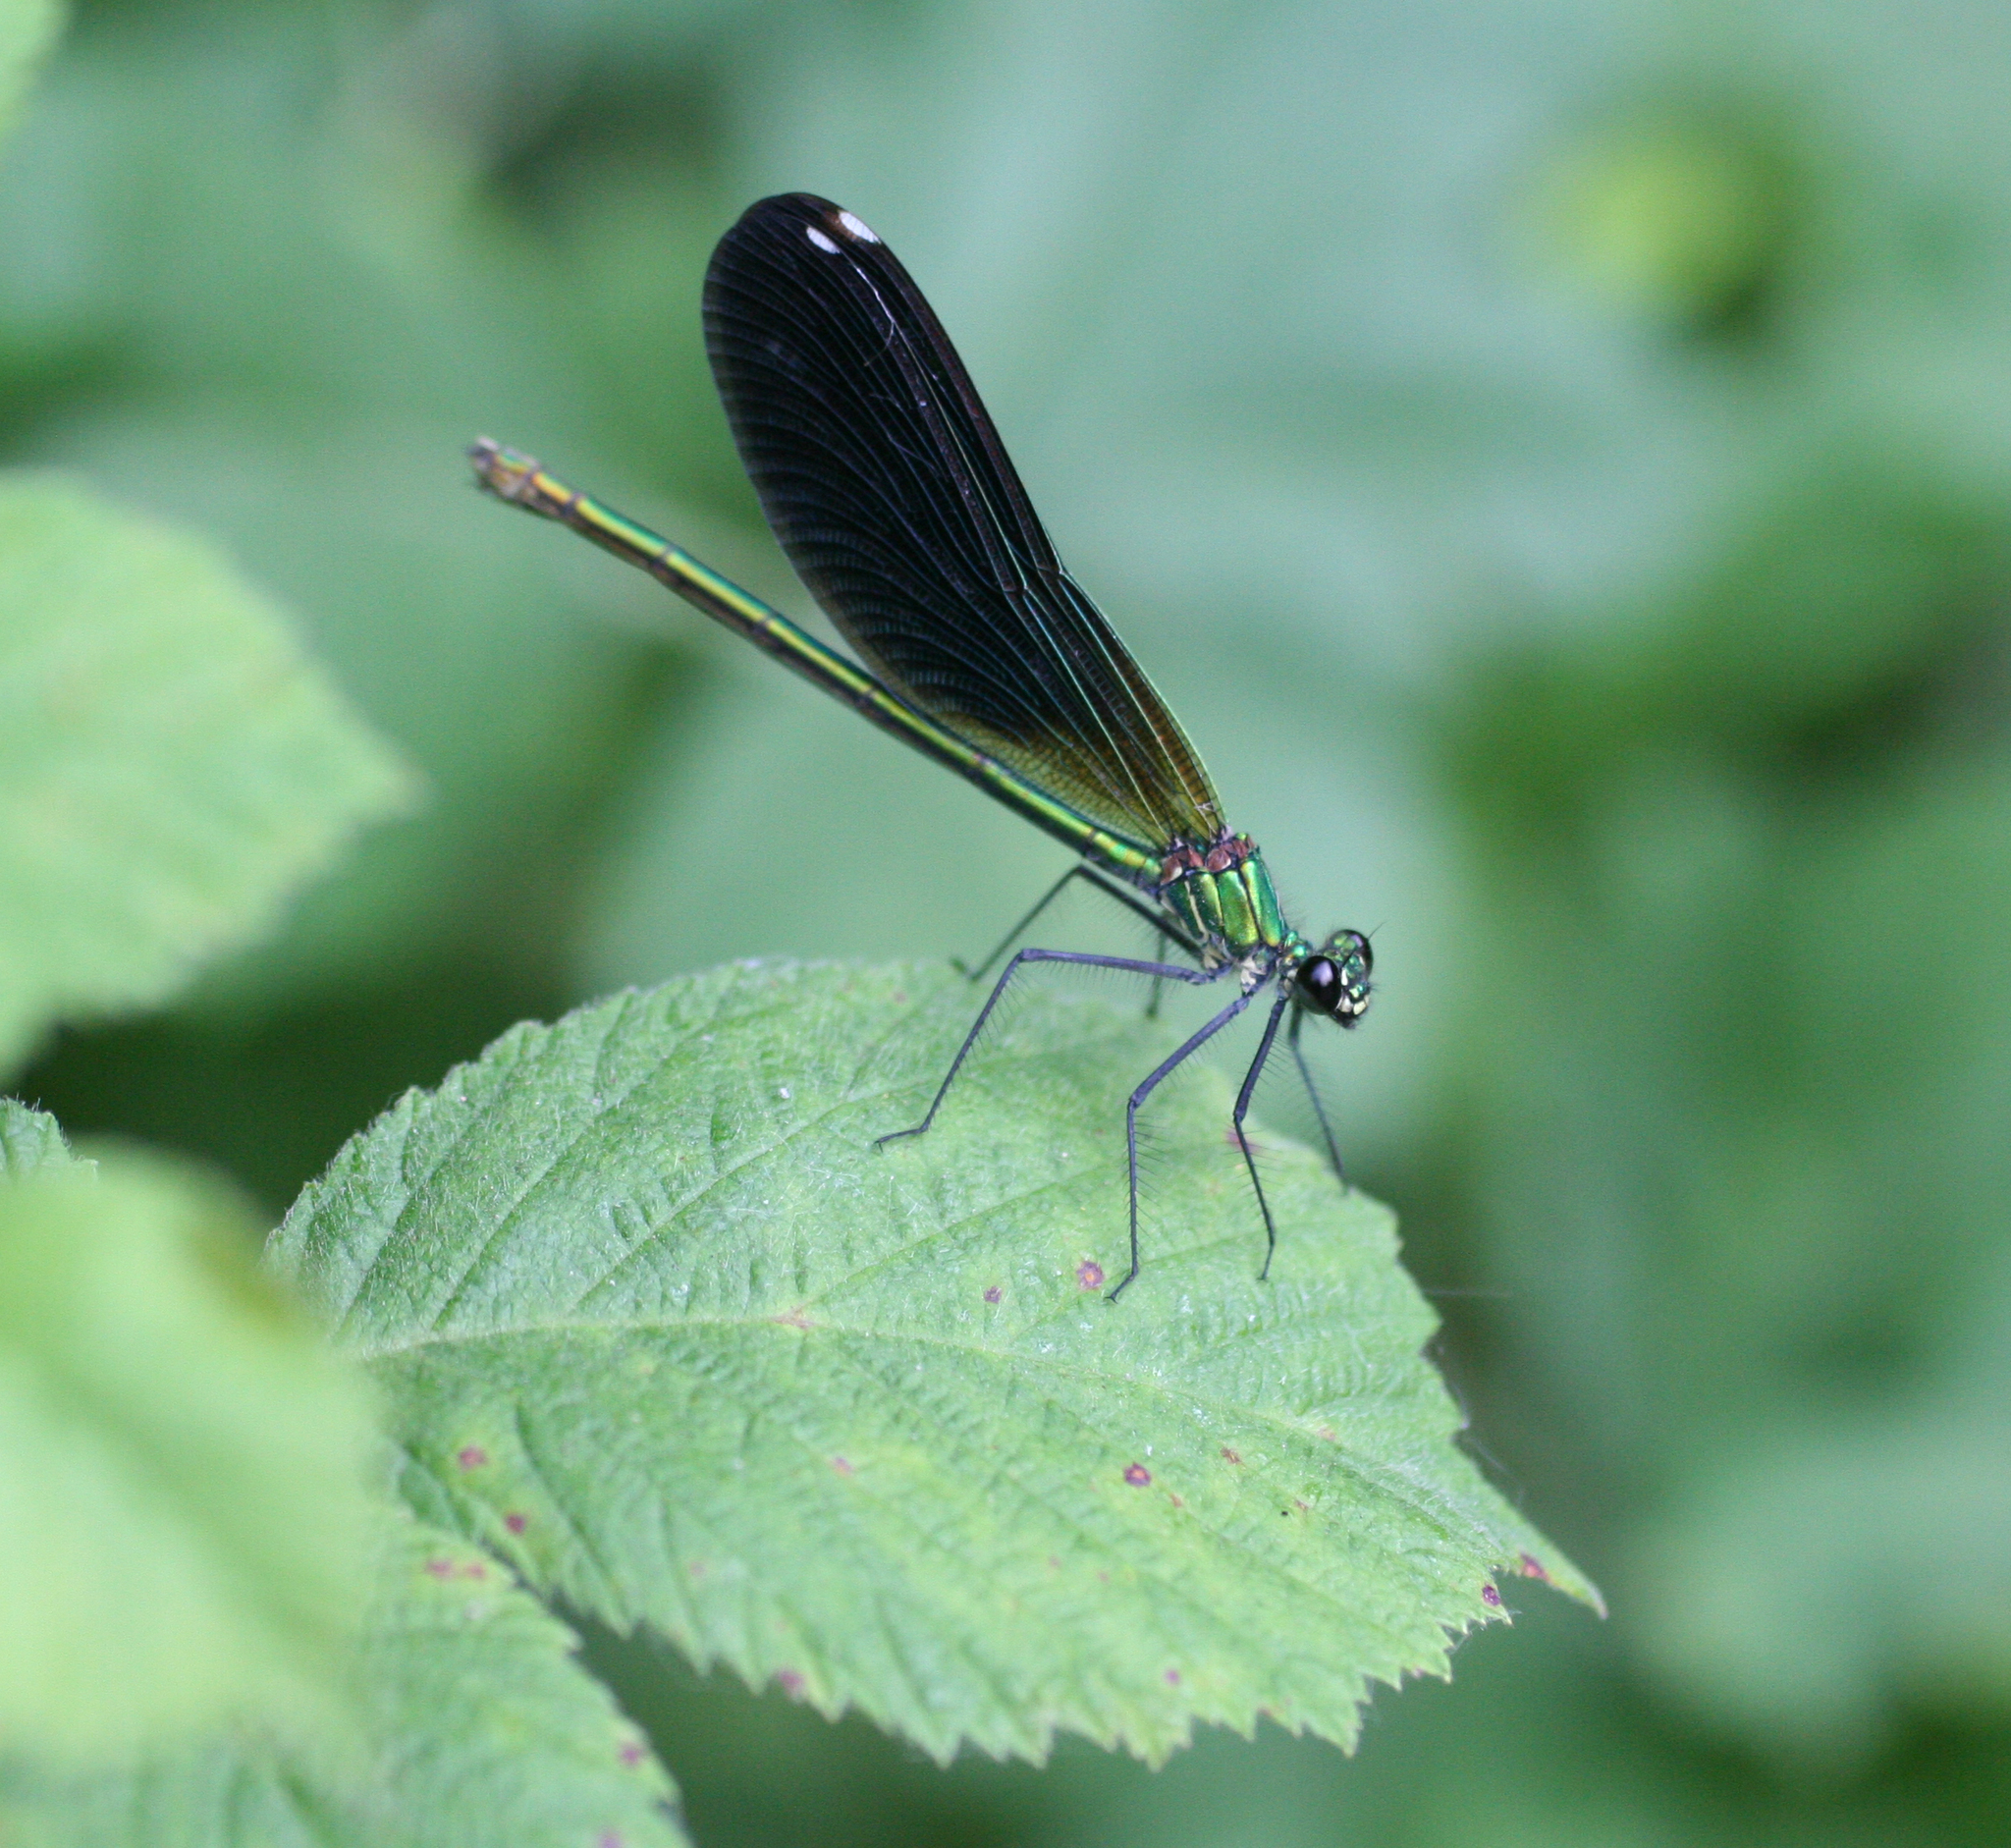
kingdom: Animalia
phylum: Arthropoda
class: Insecta
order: Odonata
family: Calopterygidae
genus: Calopteryx
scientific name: Calopteryx splendens
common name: Banded demoiselle
